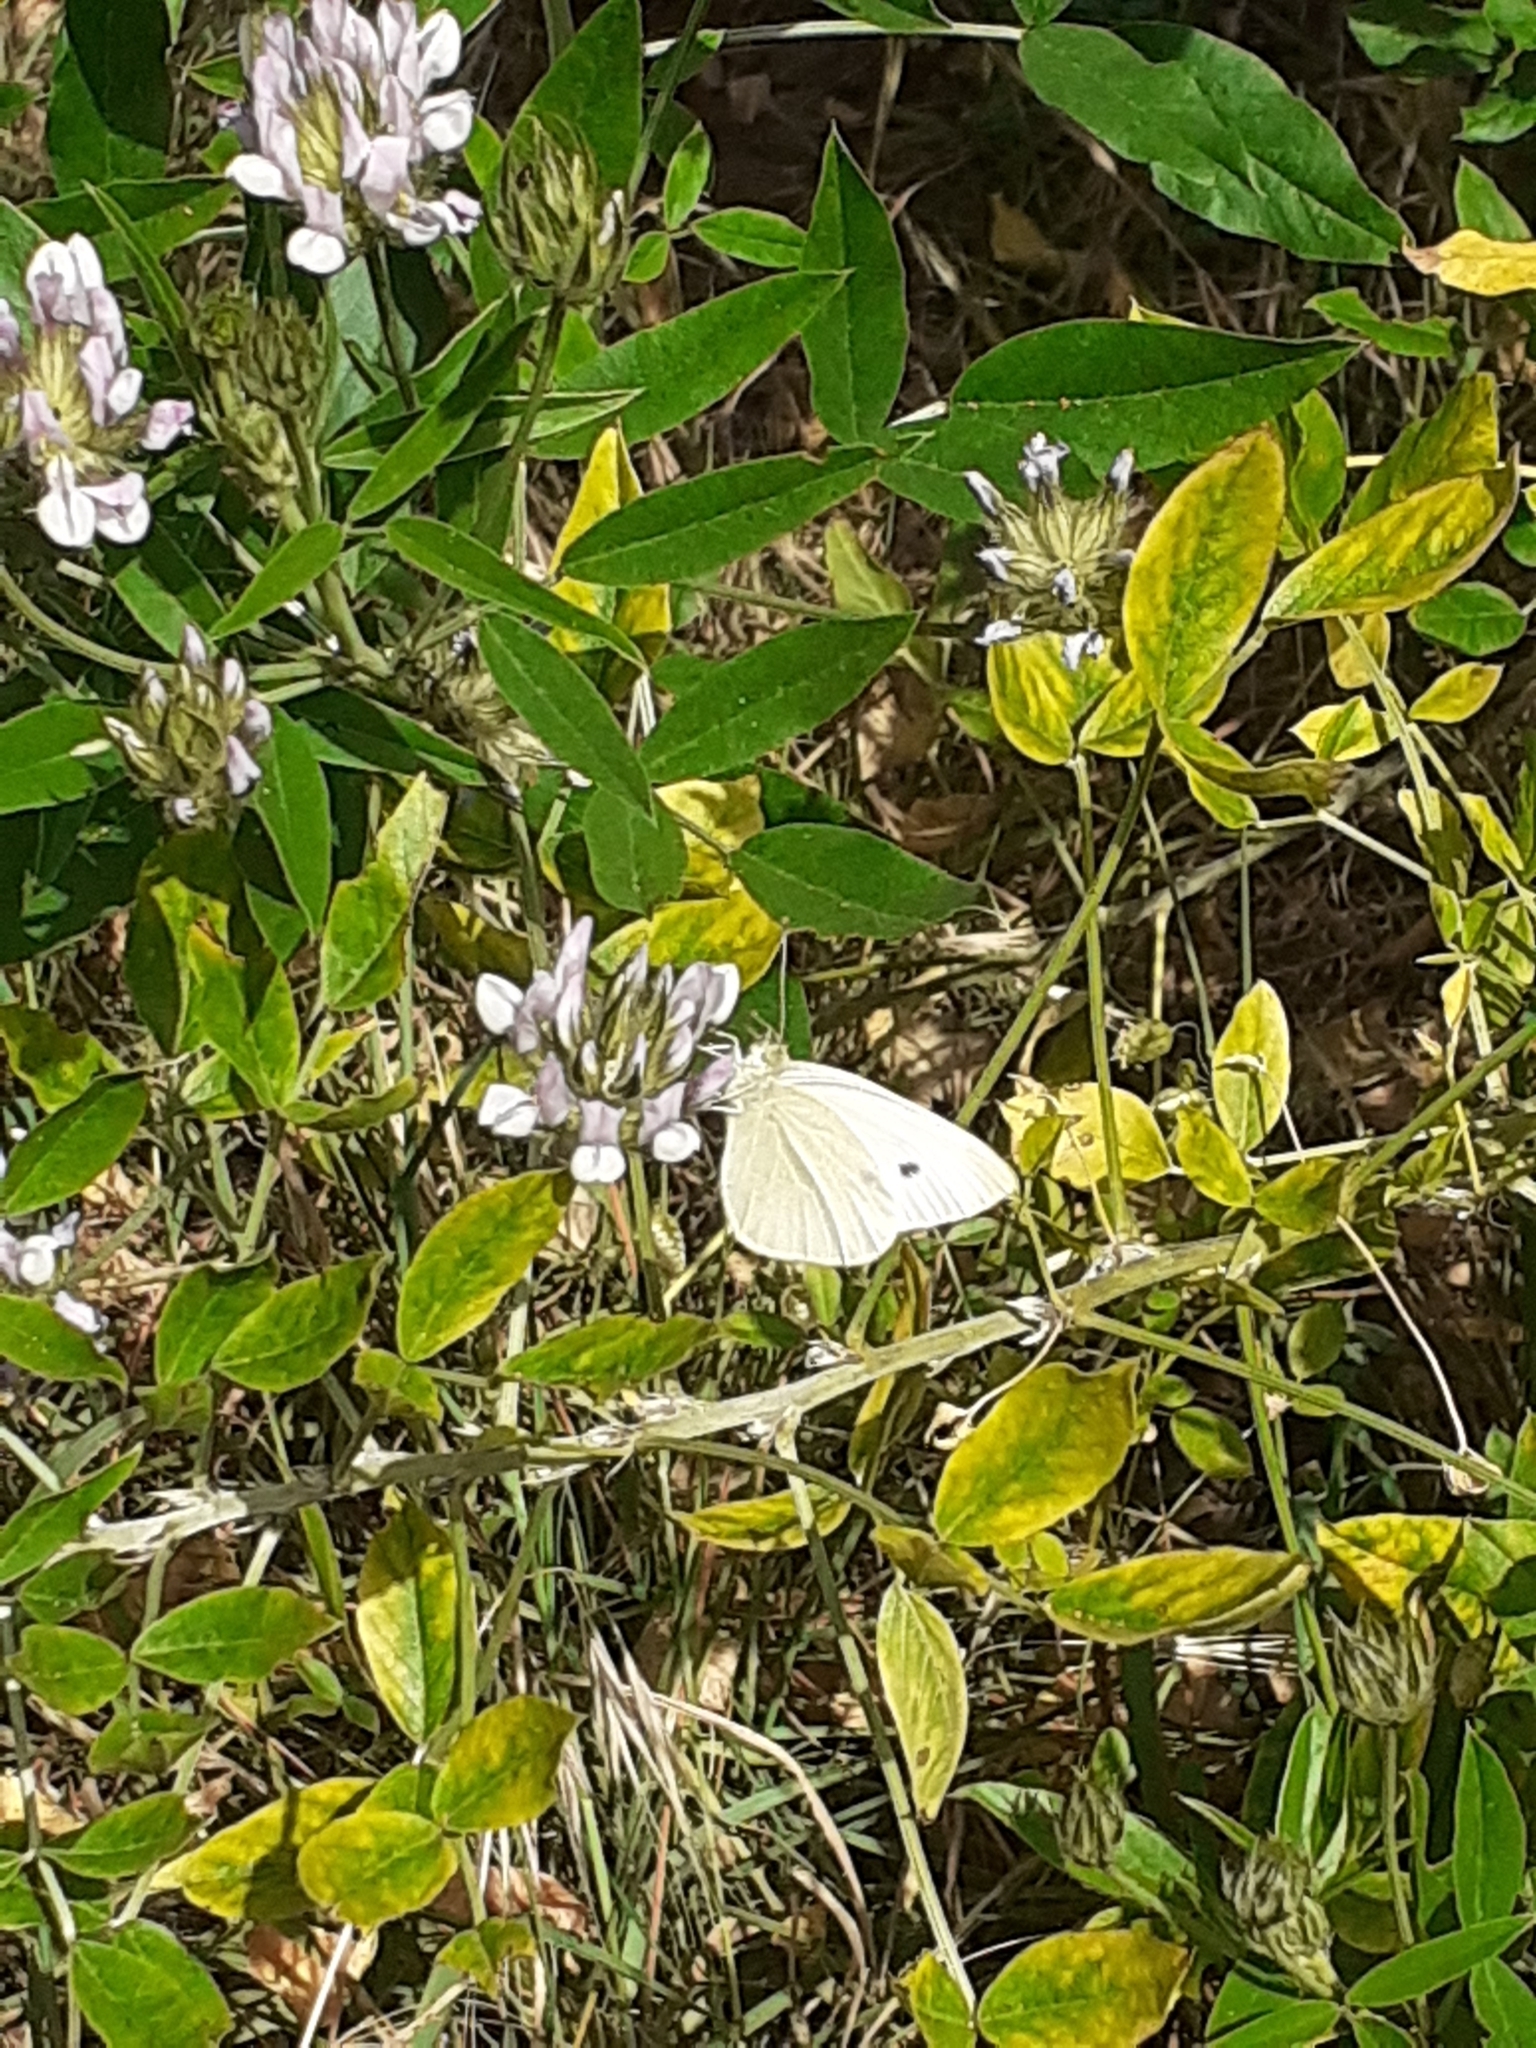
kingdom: Animalia
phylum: Arthropoda
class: Insecta
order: Lepidoptera
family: Pieridae
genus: Pieris
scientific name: Pieris rapae
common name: Small white
